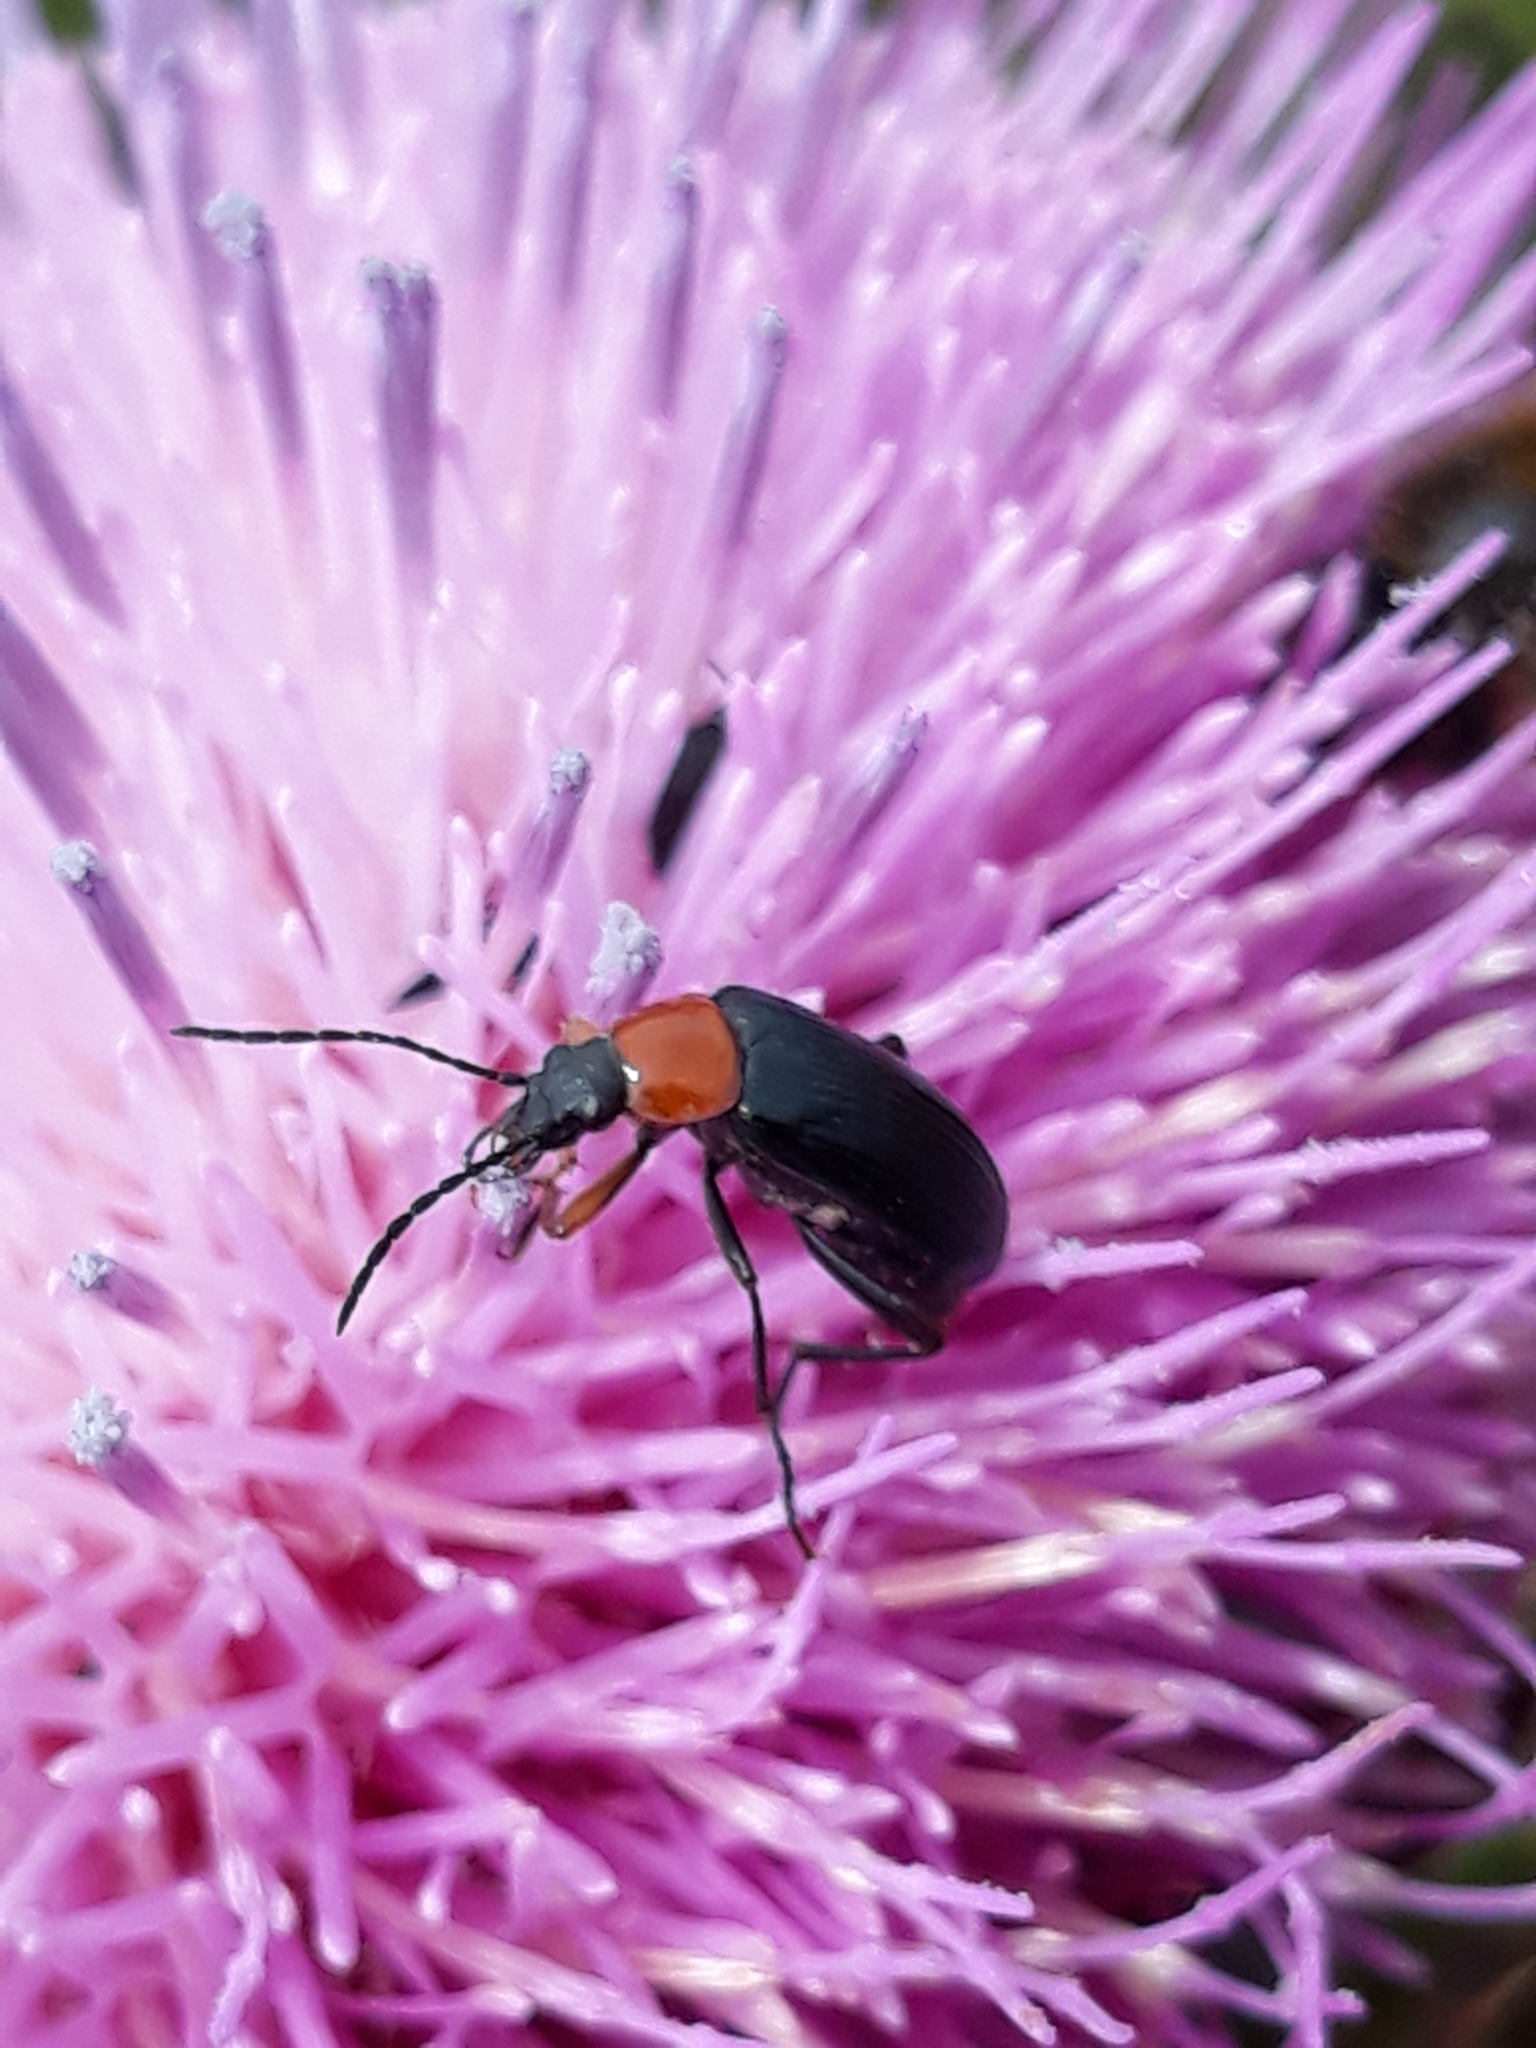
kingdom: Animalia
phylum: Arthropoda
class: Insecta
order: Coleoptera
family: Tenebrionidae
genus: Heliotaurus
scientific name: Heliotaurus ruficollis
